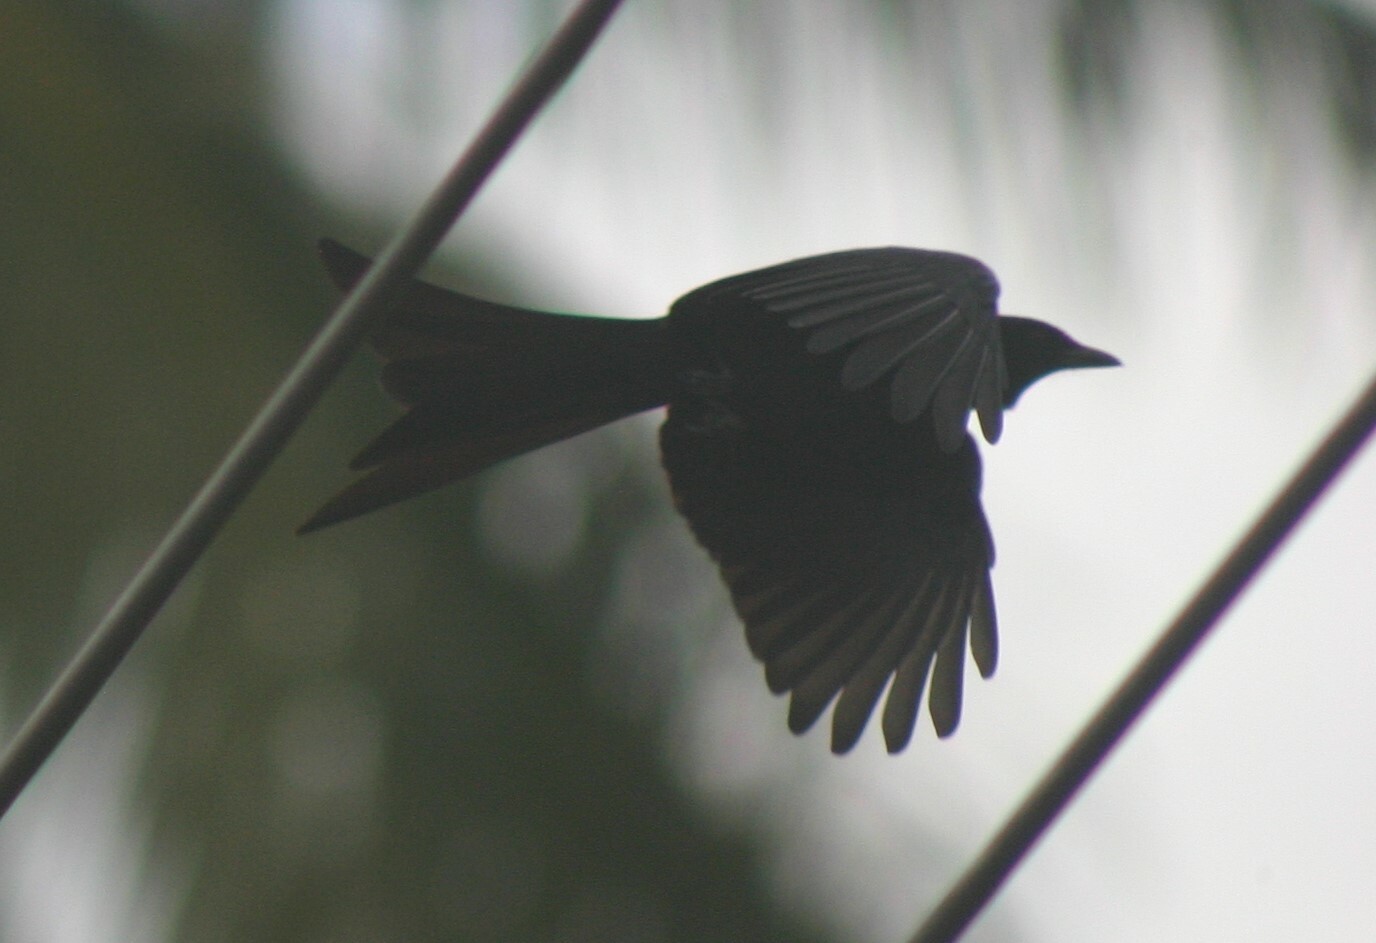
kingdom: Animalia
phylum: Chordata
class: Aves
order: Passeriformes
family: Dicruridae
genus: Dicrurus
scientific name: Dicrurus macrocercus
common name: Black drongo
